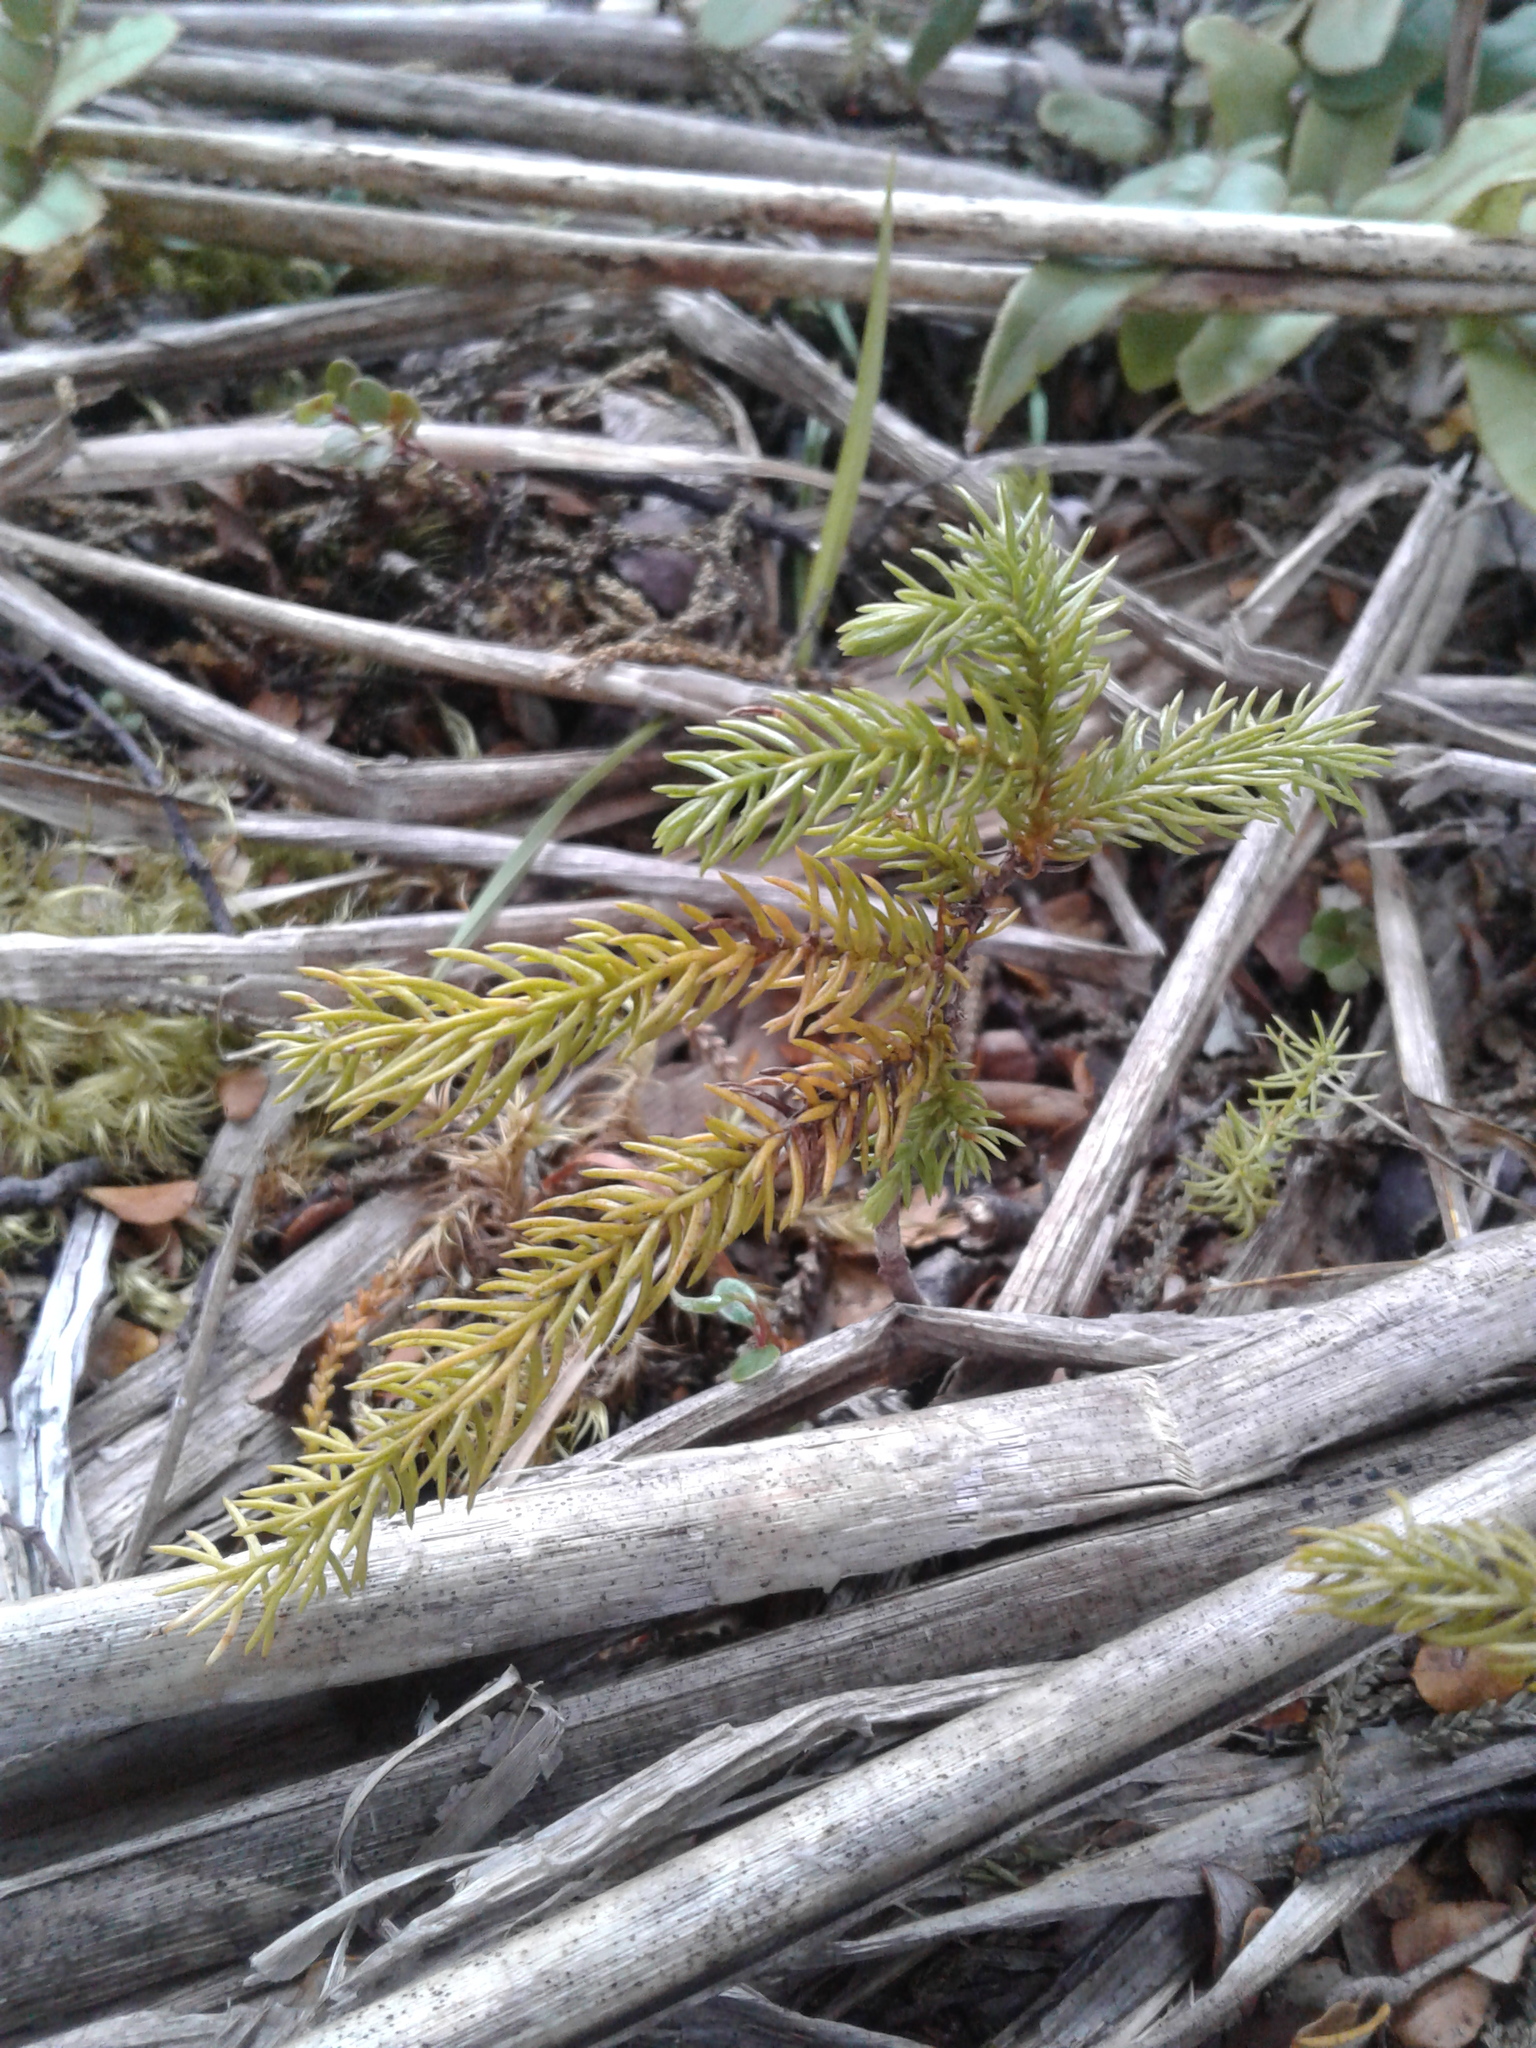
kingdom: Plantae
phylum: Tracheophyta
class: Pinopsida
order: Pinales
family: Podocarpaceae
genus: Dacrydium
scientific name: Dacrydium cupressinum
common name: Red pine
